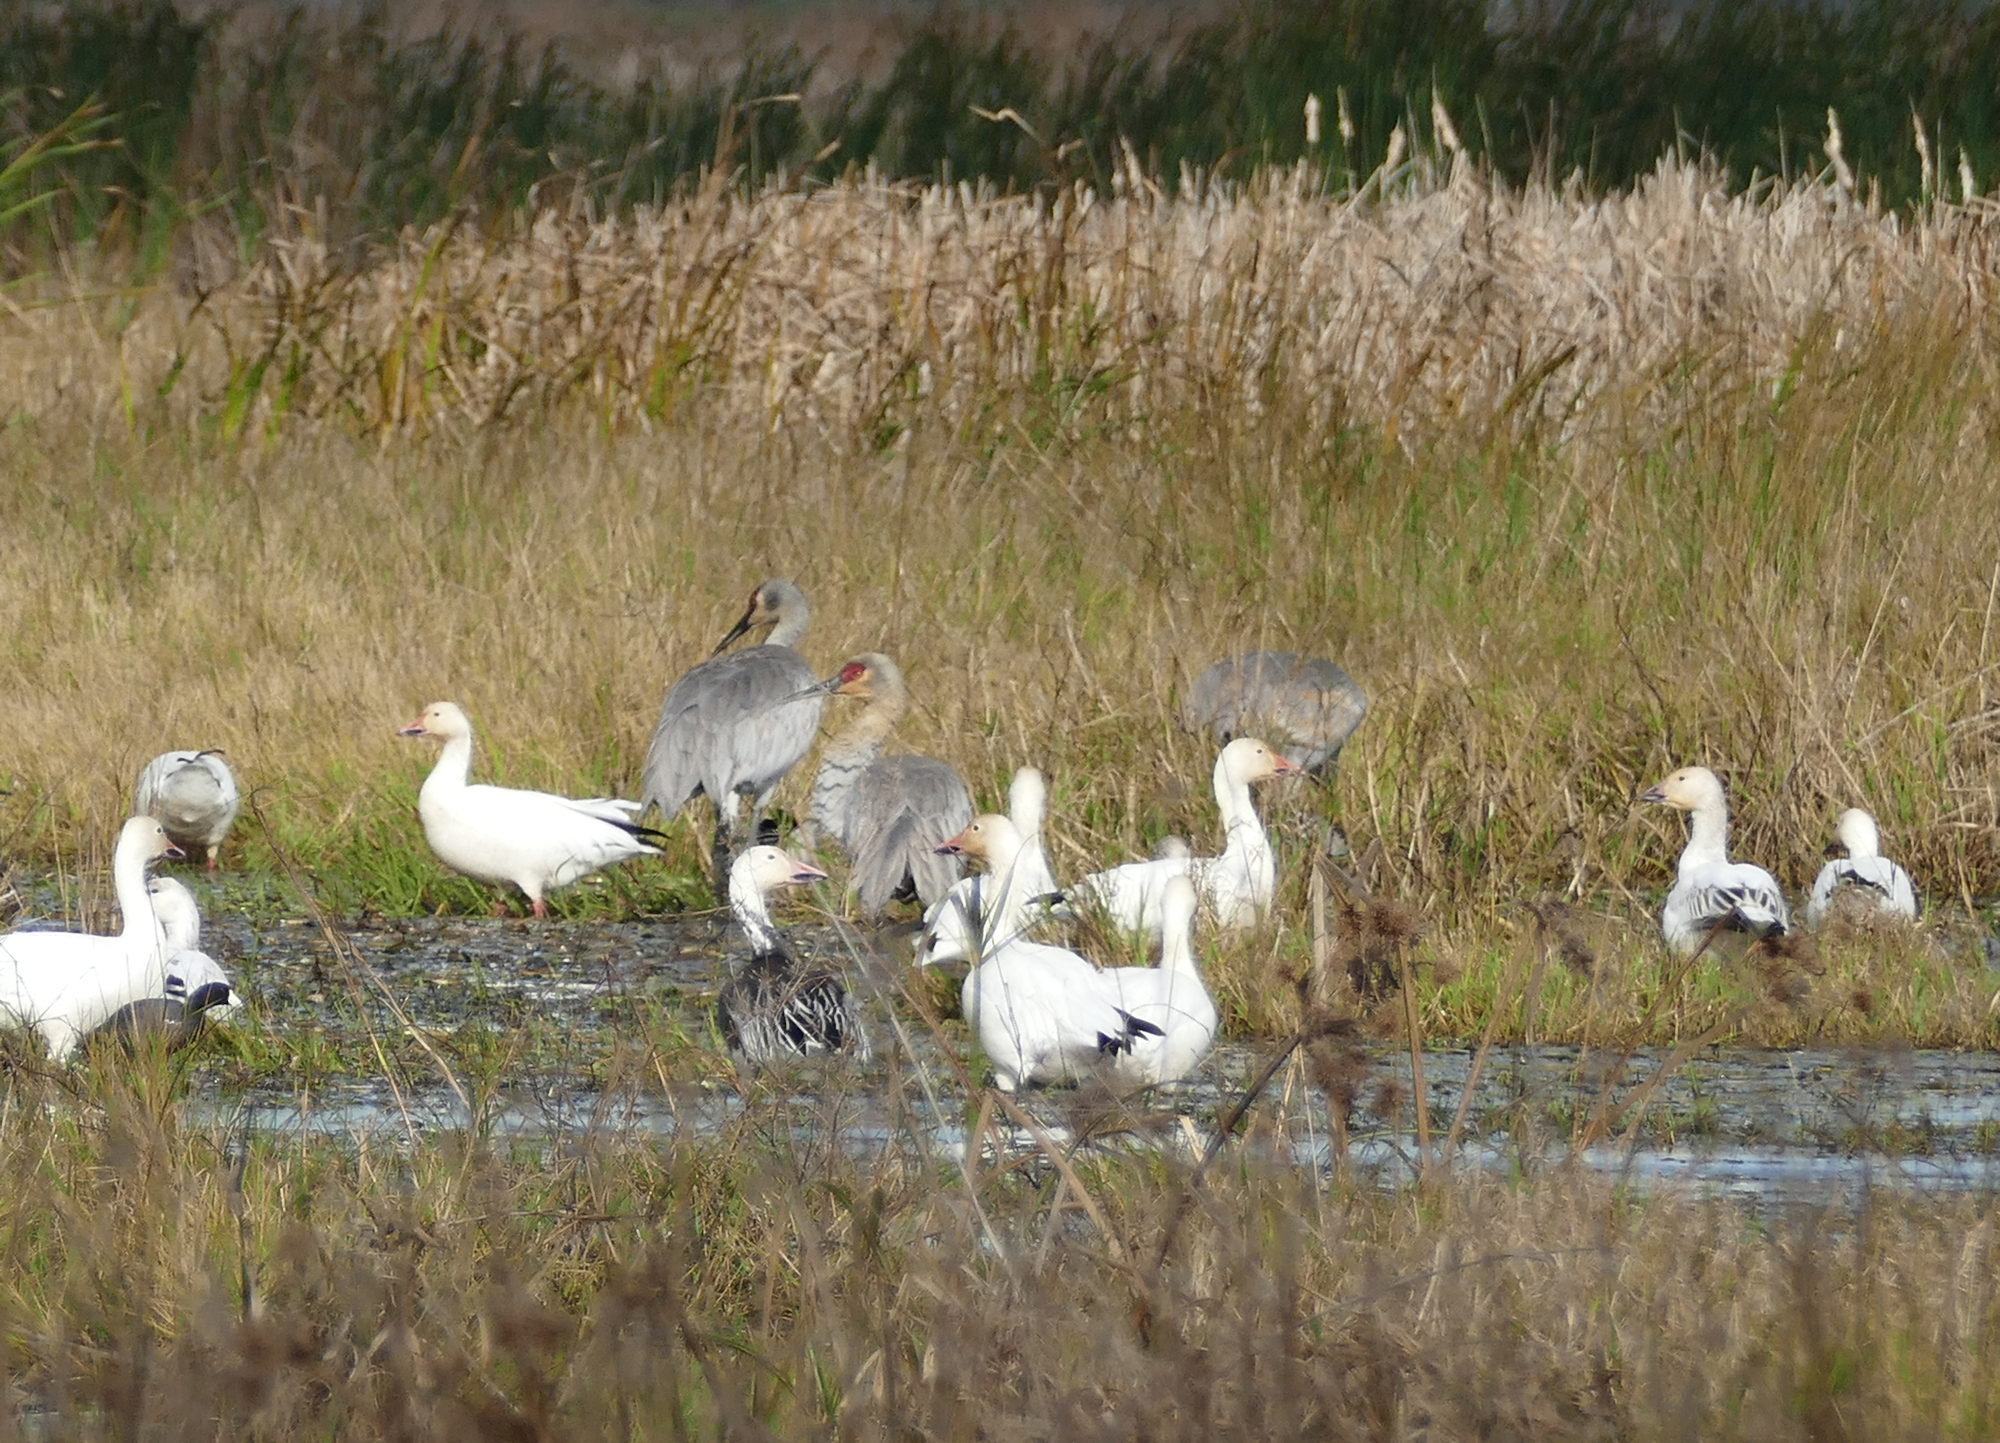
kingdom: Animalia
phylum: Chordata
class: Aves
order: Anseriformes
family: Anatidae
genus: Anser
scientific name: Anser caerulescens
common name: Snow goose
